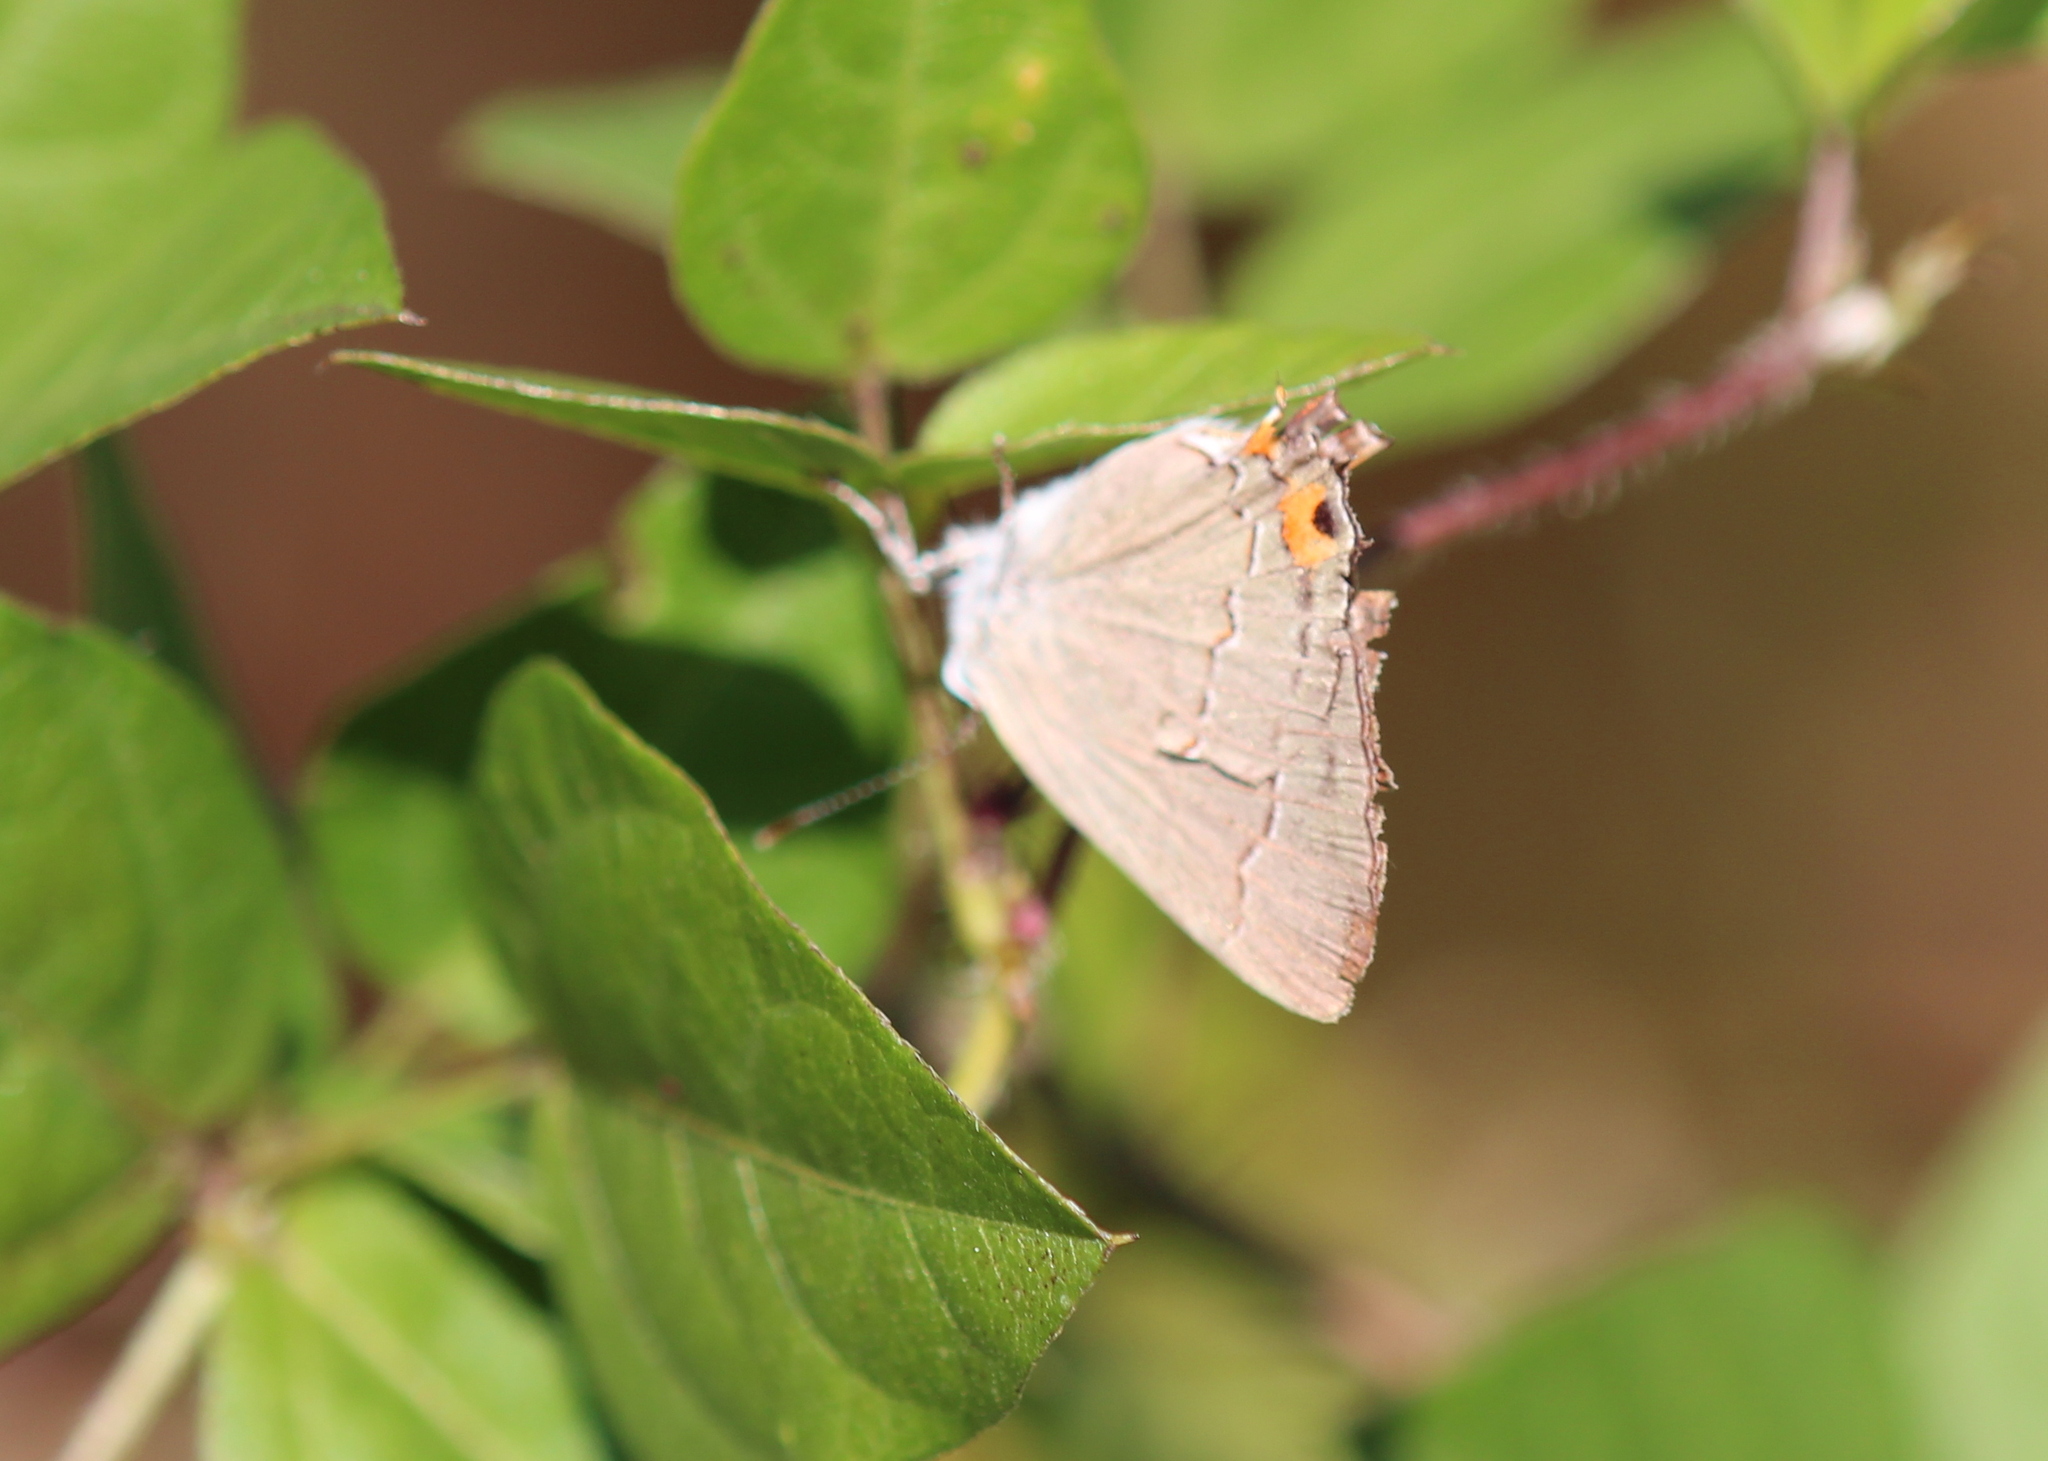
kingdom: Animalia
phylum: Arthropoda
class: Insecta
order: Lepidoptera
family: Lycaenidae
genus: Strymon
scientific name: Strymon melinus
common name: Gray hairstreak
